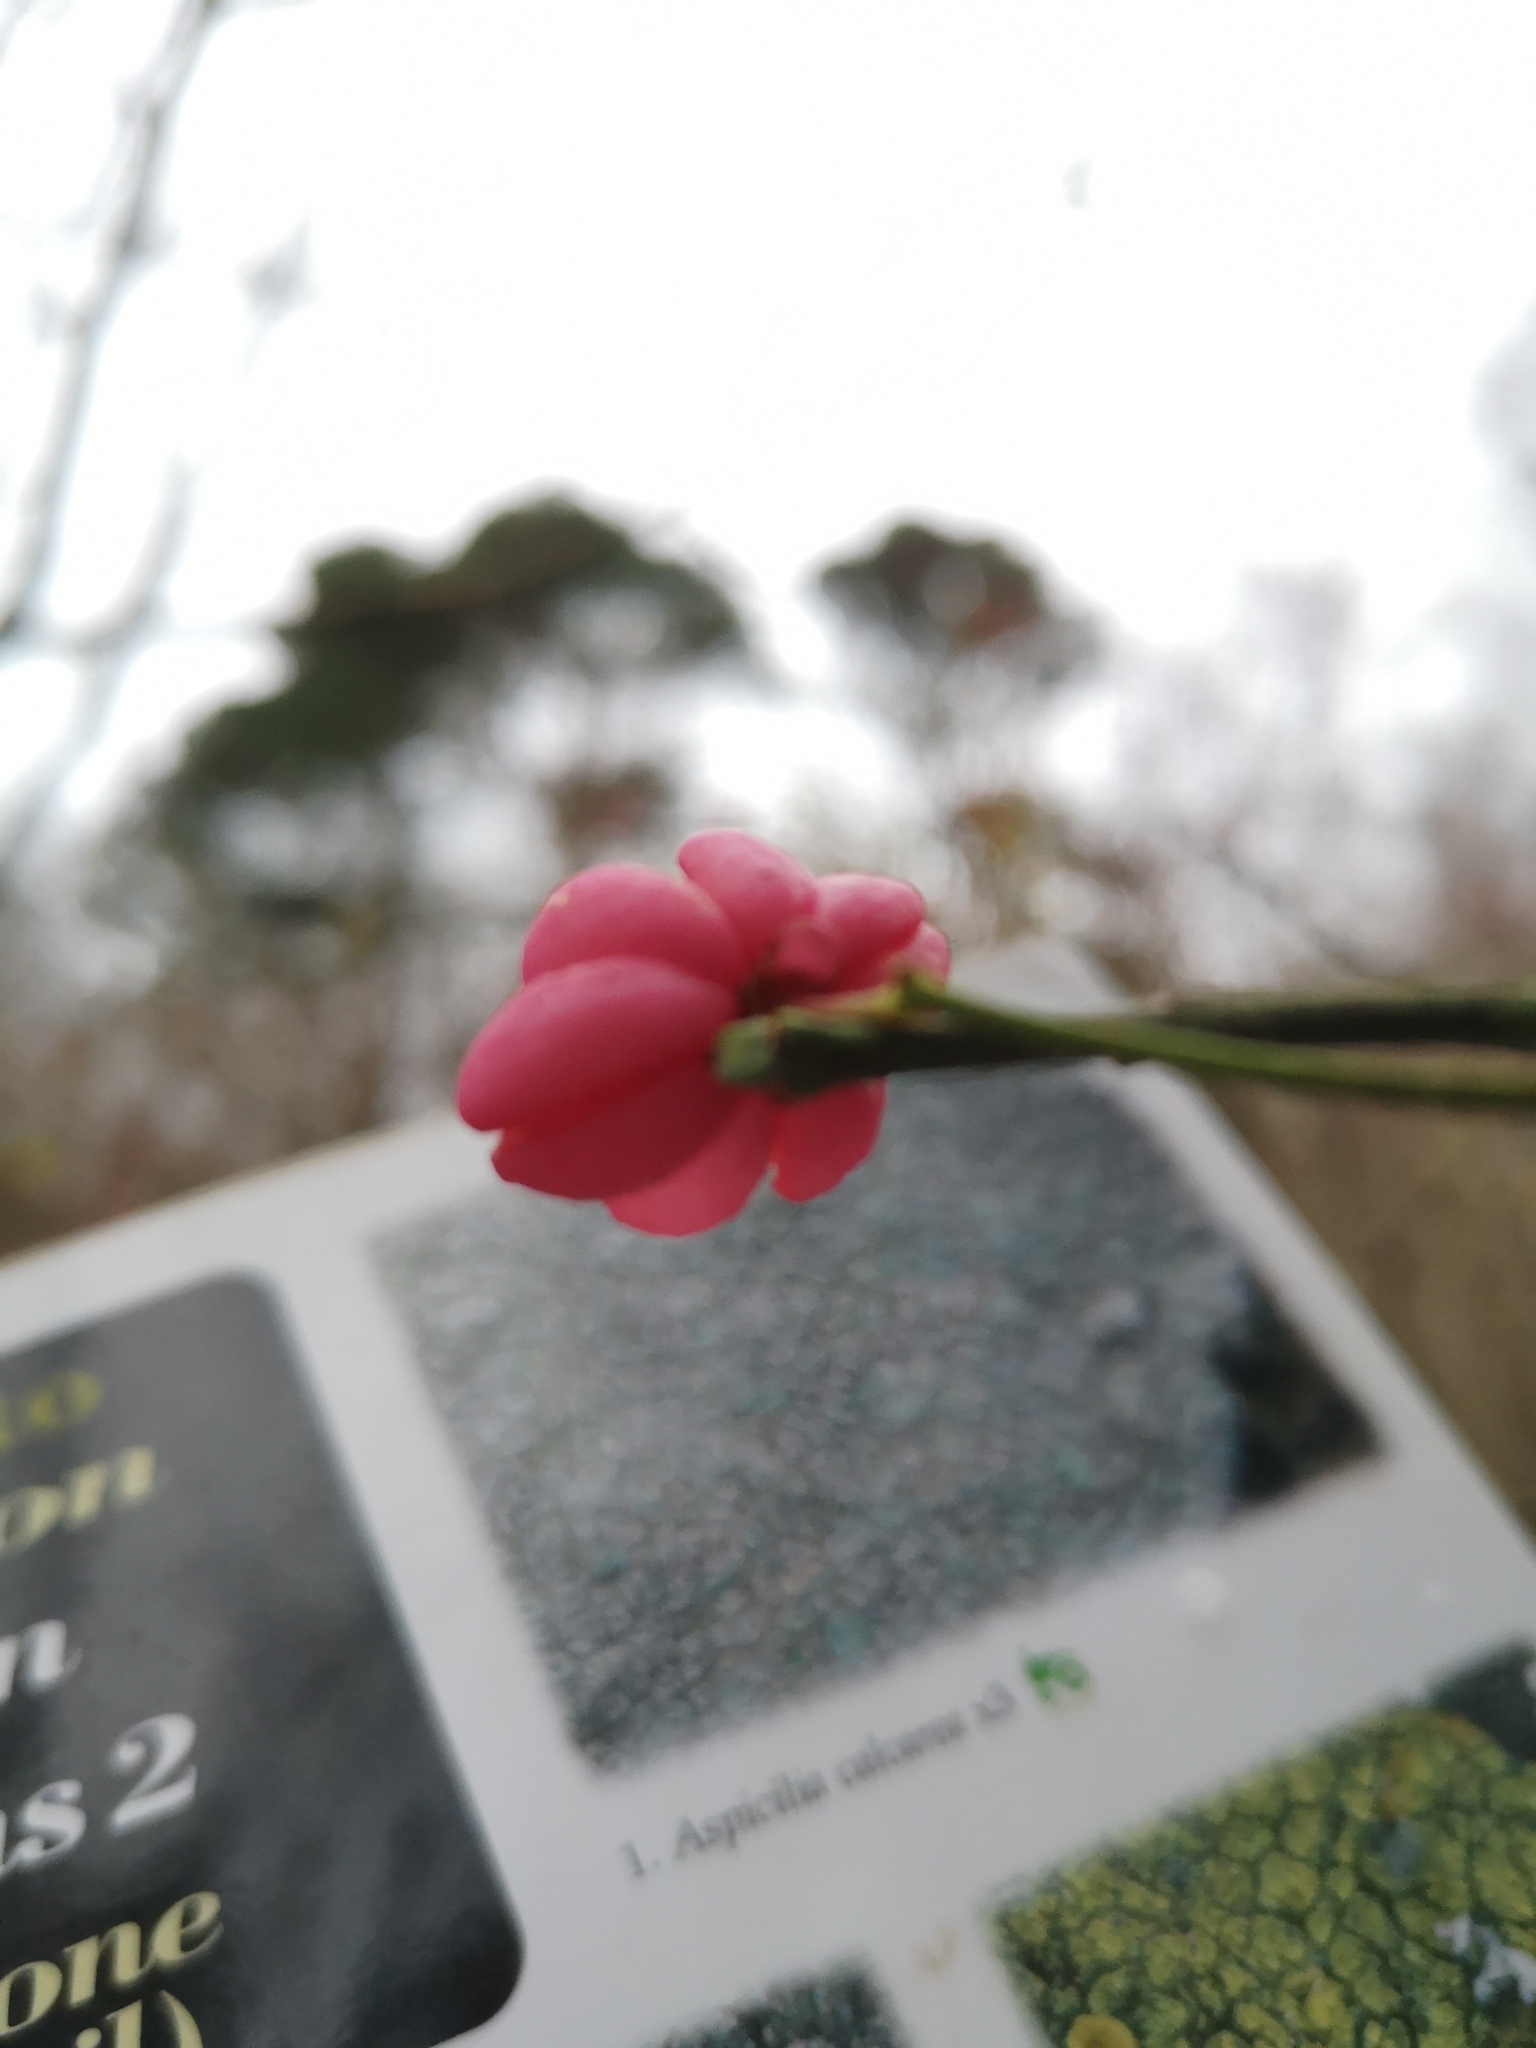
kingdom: Plantae
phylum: Tracheophyta
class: Magnoliopsida
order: Celastrales
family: Celastraceae
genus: Euonymus
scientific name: Euonymus europaeus
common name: Spindle
